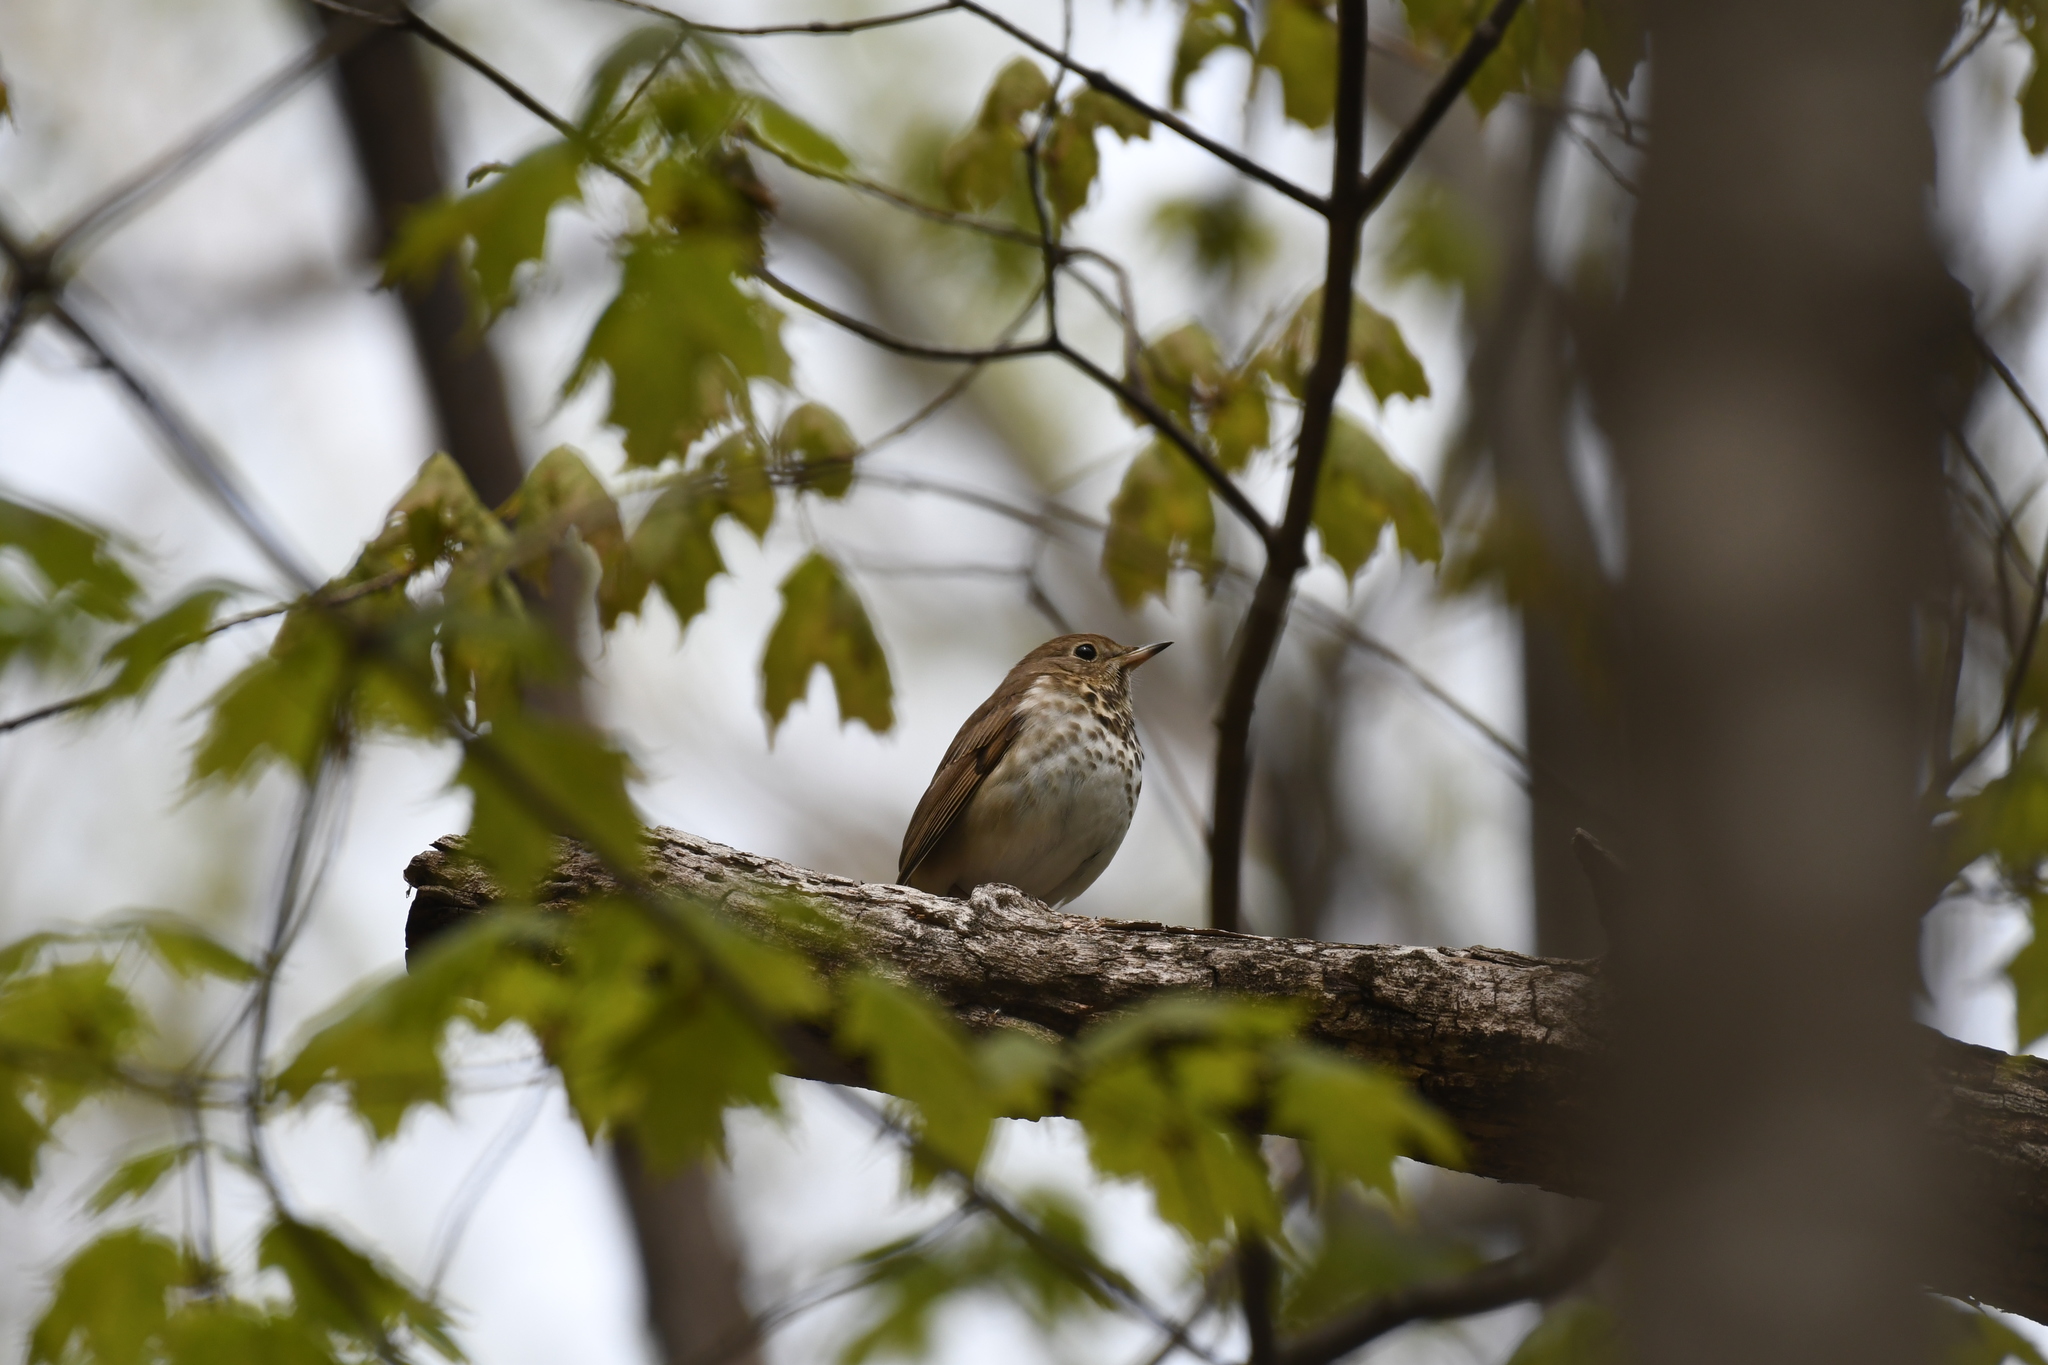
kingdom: Animalia
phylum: Chordata
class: Aves
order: Passeriformes
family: Turdidae
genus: Catharus
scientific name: Catharus guttatus
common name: Hermit thrush
